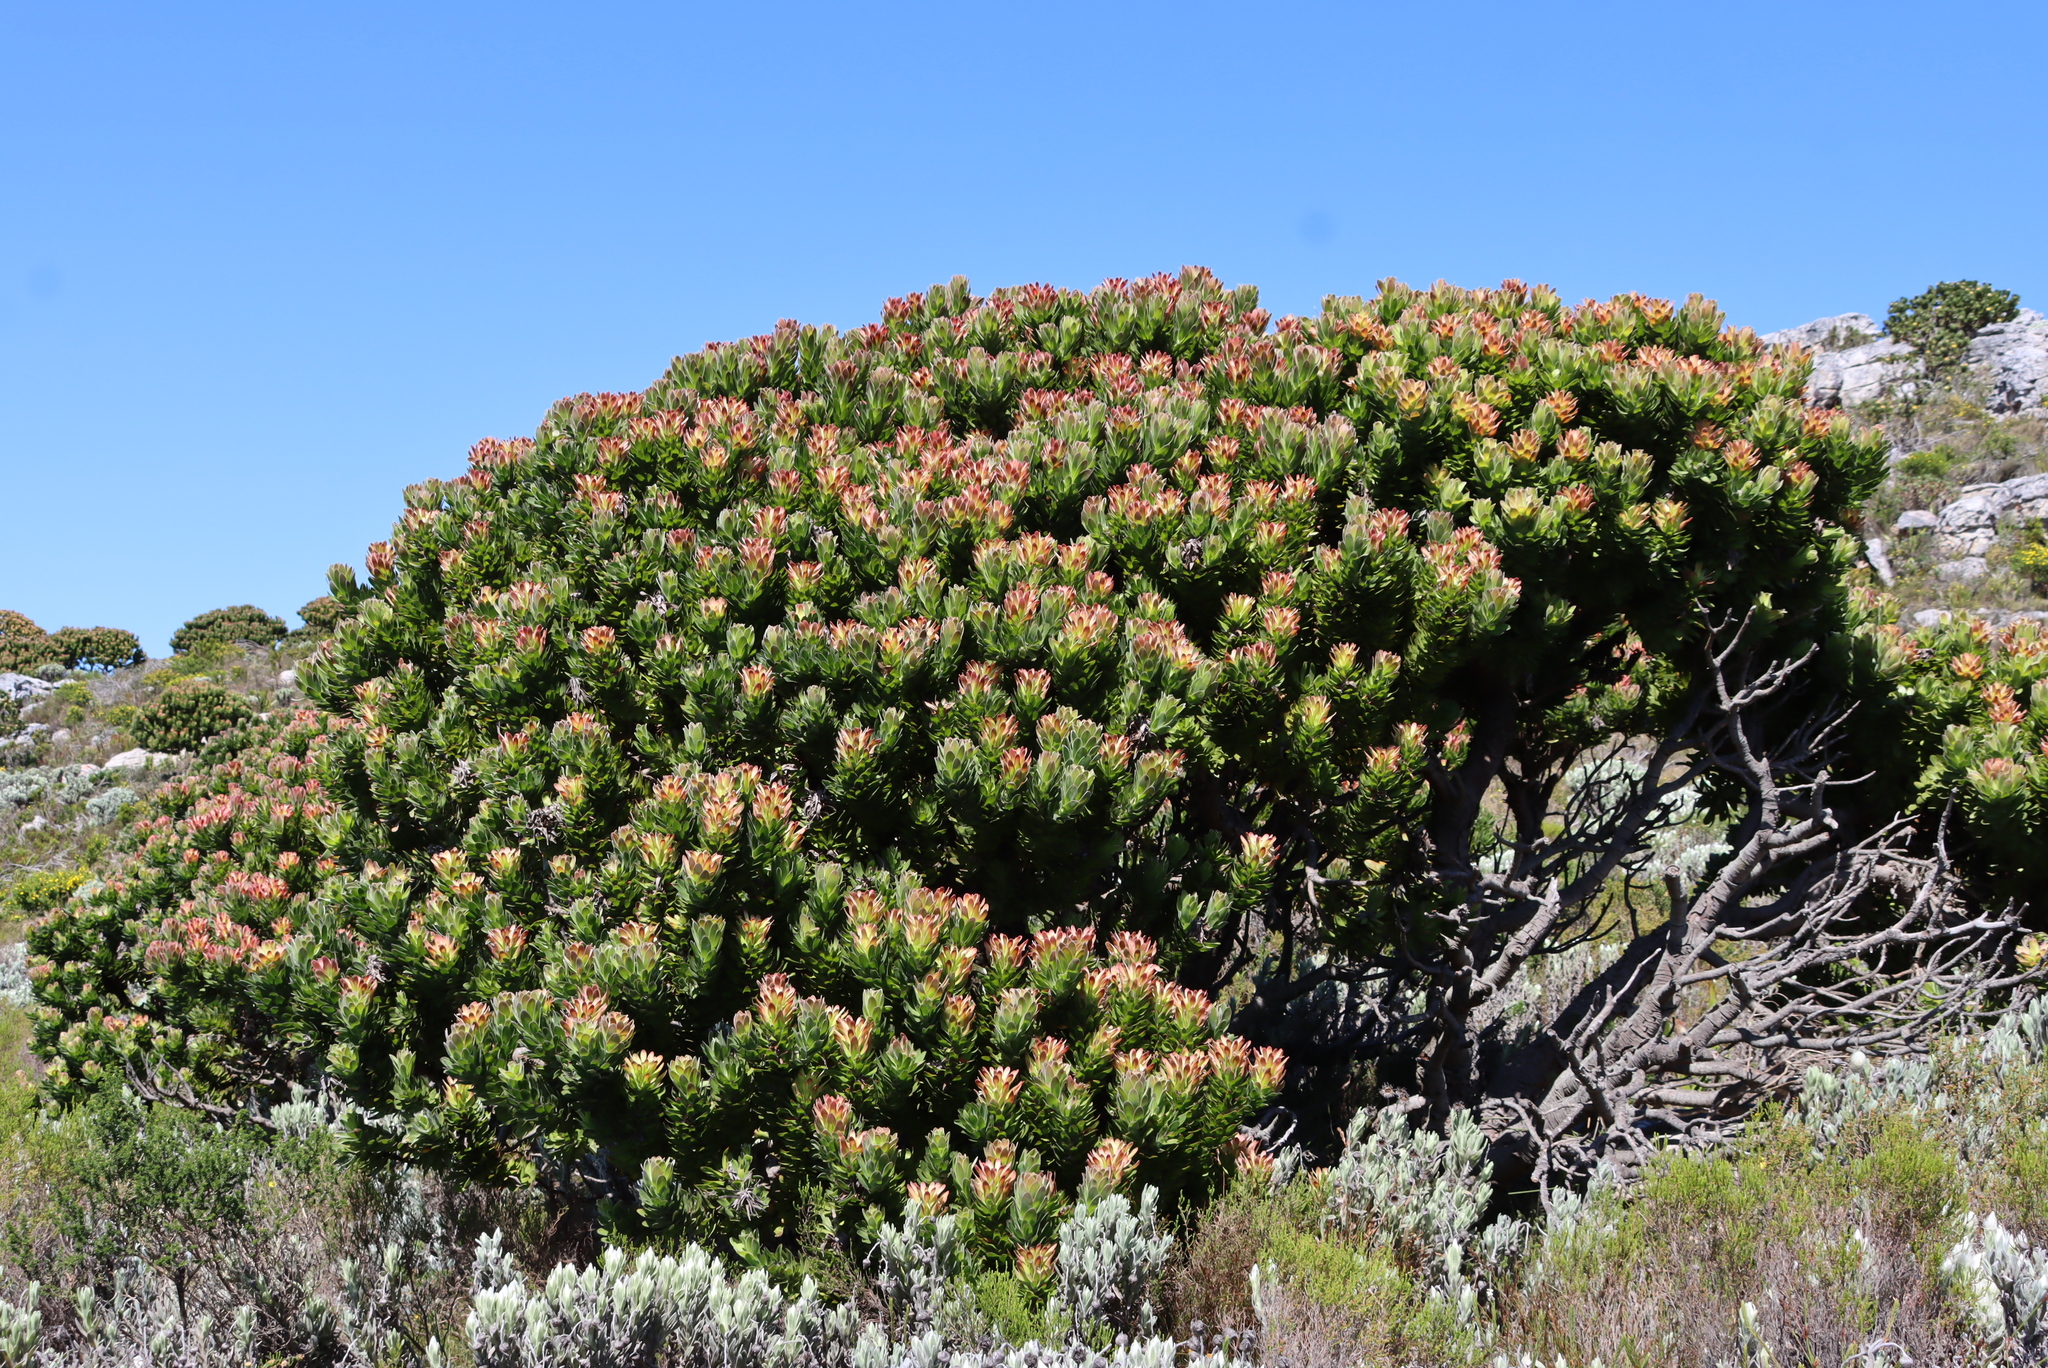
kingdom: Plantae
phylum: Tracheophyta
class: Magnoliopsida
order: Proteales
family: Proteaceae
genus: Mimetes
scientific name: Mimetes fimbriifolius
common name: Fringed bottlebrush
